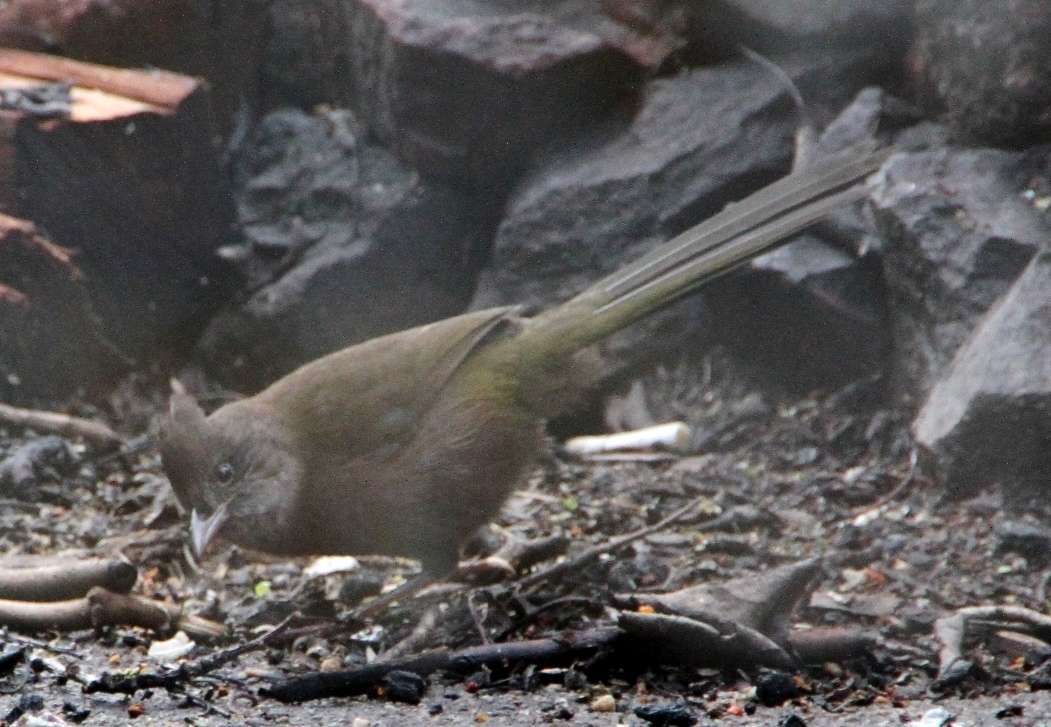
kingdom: Animalia
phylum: Chordata
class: Aves
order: Passeriformes
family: Psophodidae
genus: Psophodes
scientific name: Psophodes olivaceus
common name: Eastern whipbird
